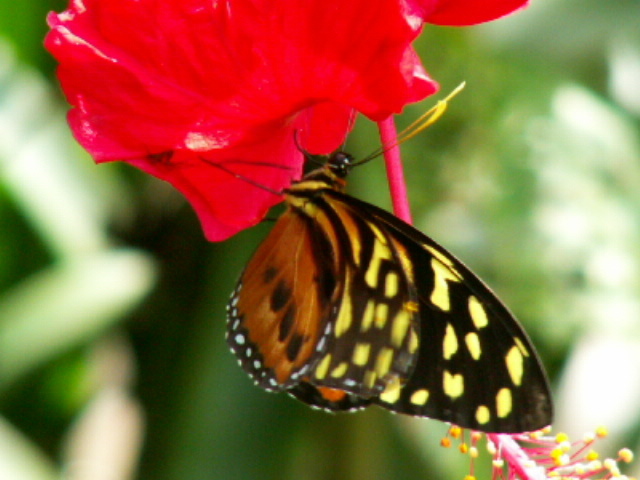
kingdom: Animalia
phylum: Arthropoda
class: Insecta
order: Lepidoptera
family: Nymphalidae
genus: Tithorea
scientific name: Tithorea harmonia
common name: Harmonia tigerwing
